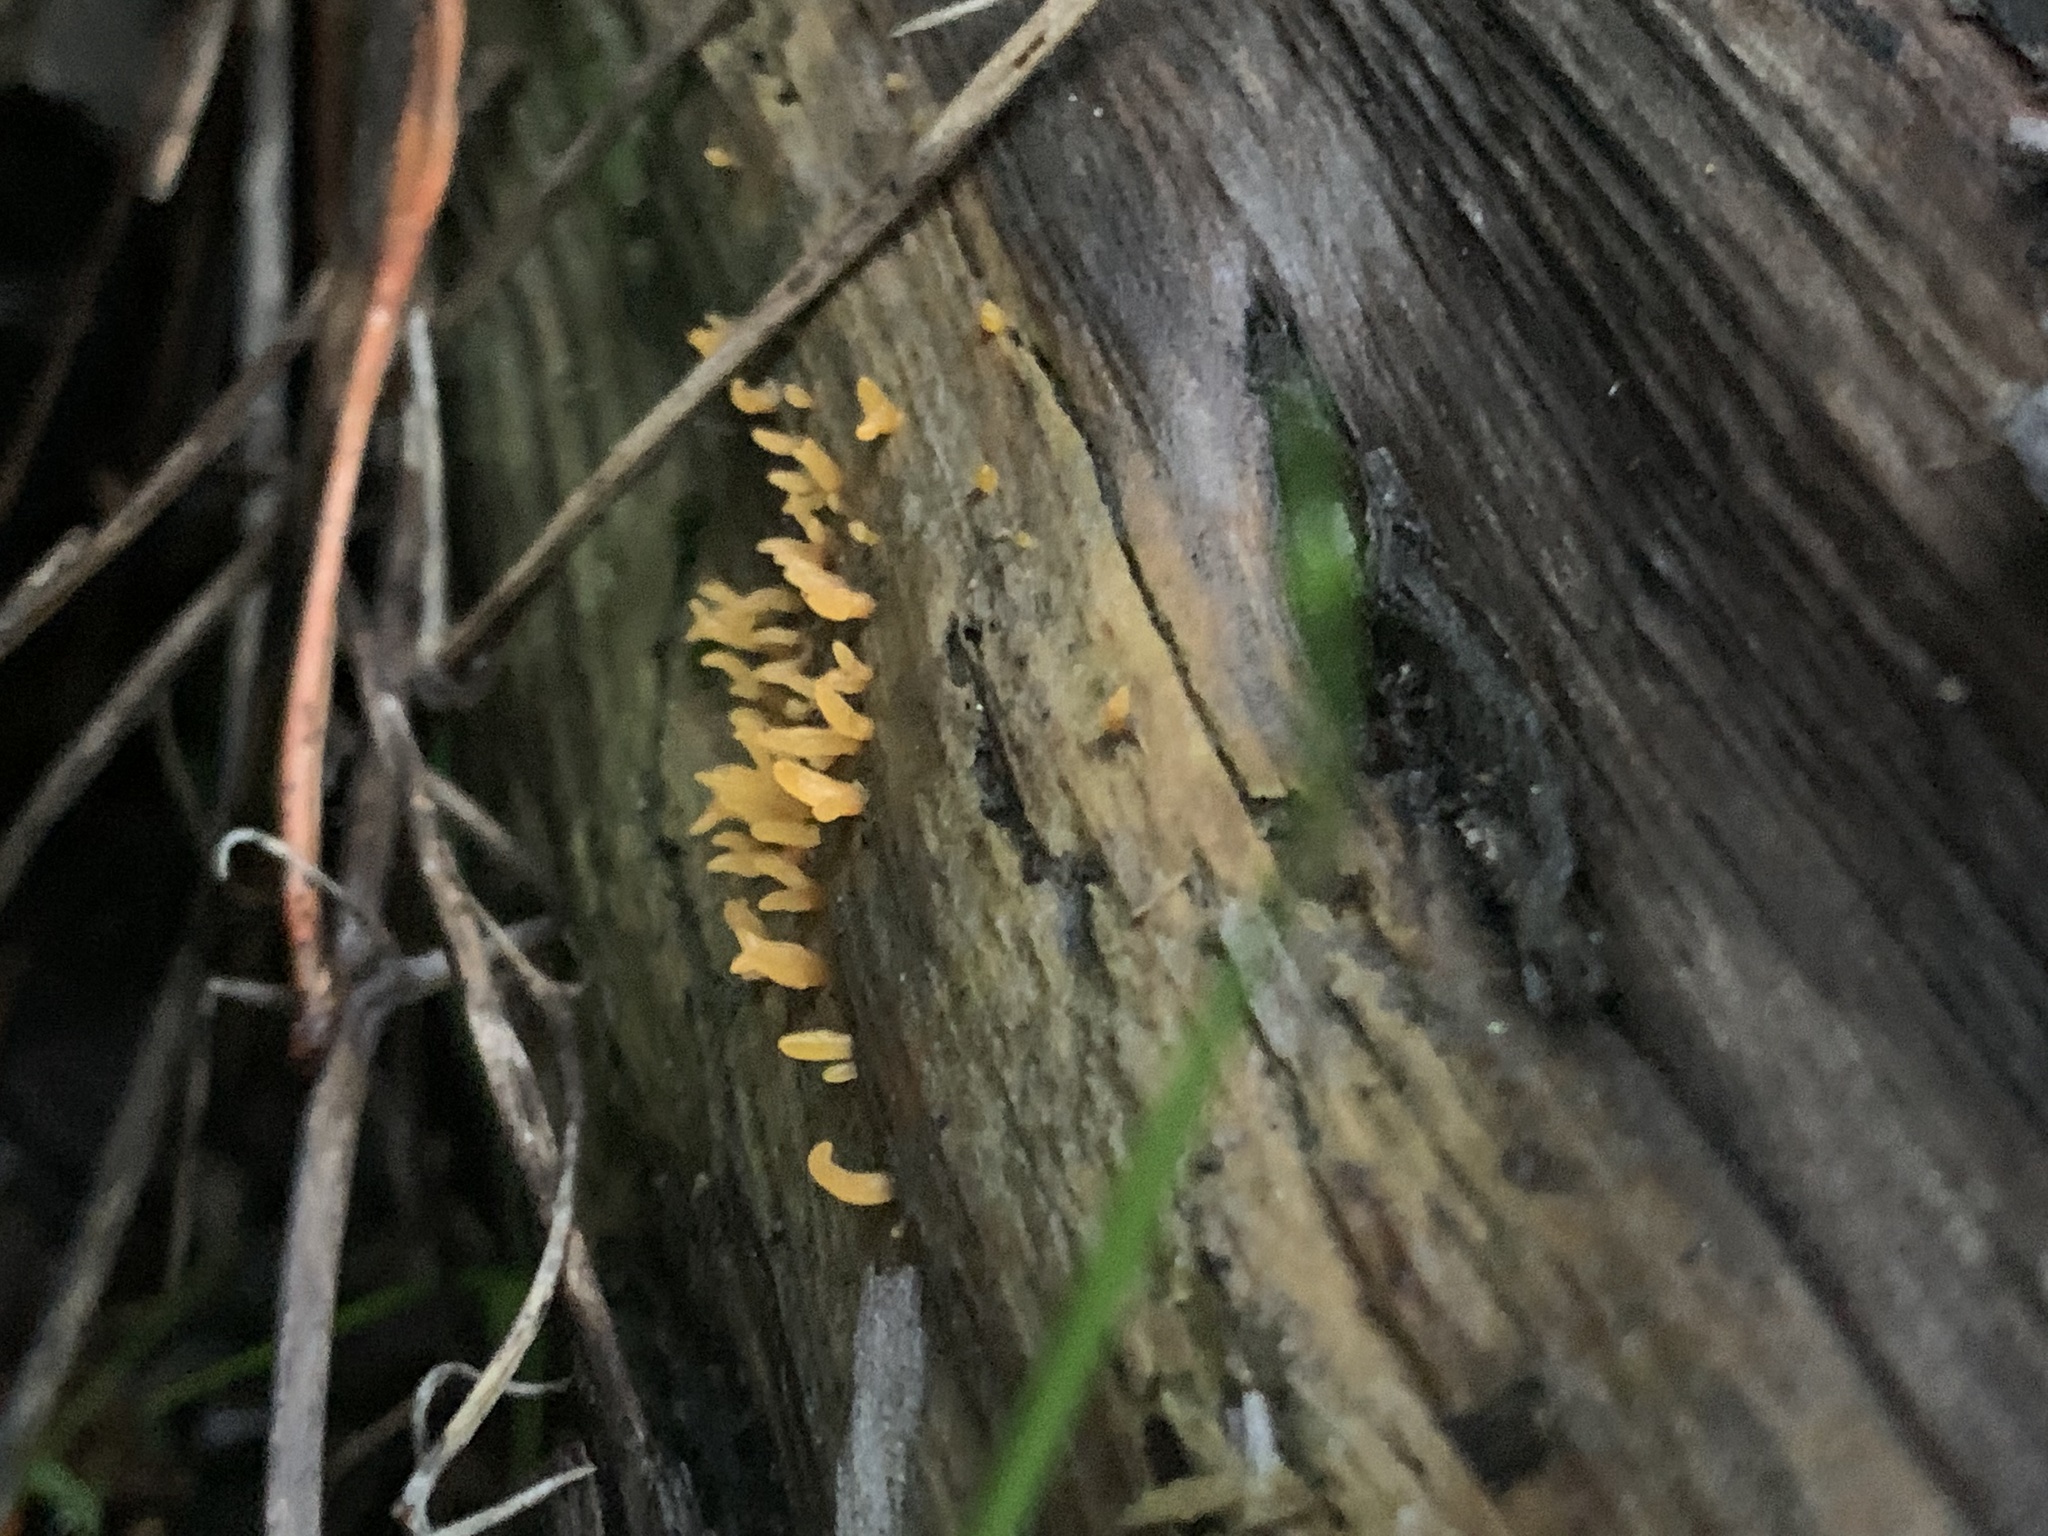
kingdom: Fungi
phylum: Basidiomycota
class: Dacrymycetes
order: Dacrymycetales
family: Dacrymycetaceae
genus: Calocera
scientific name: Calocera cornea
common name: Small stagshorn
